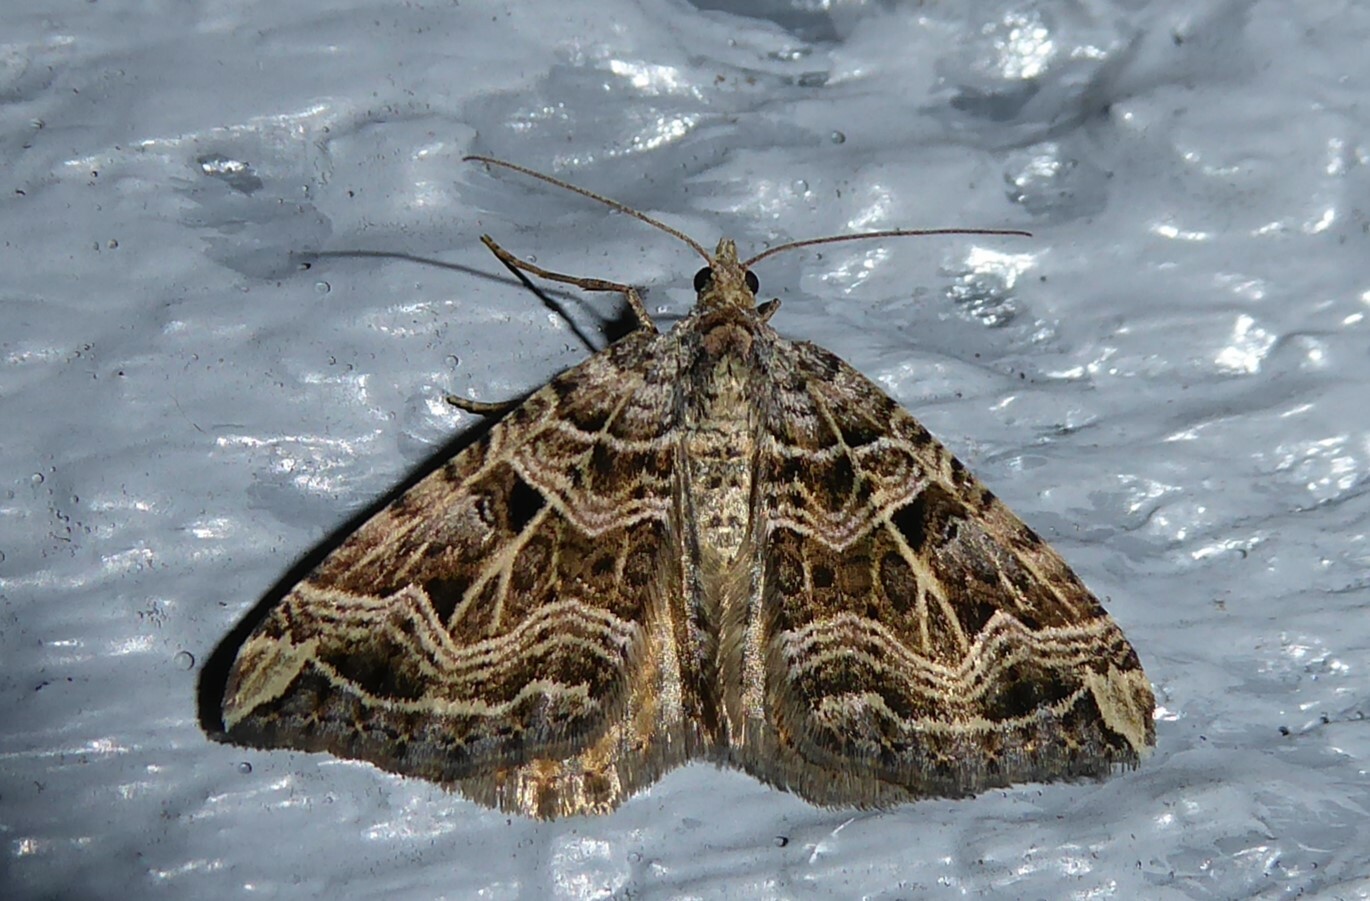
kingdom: Animalia
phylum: Arthropoda
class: Insecta
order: Lepidoptera
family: Geometridae
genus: Xanthorhoe
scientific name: Xanthorhoe semifissata
